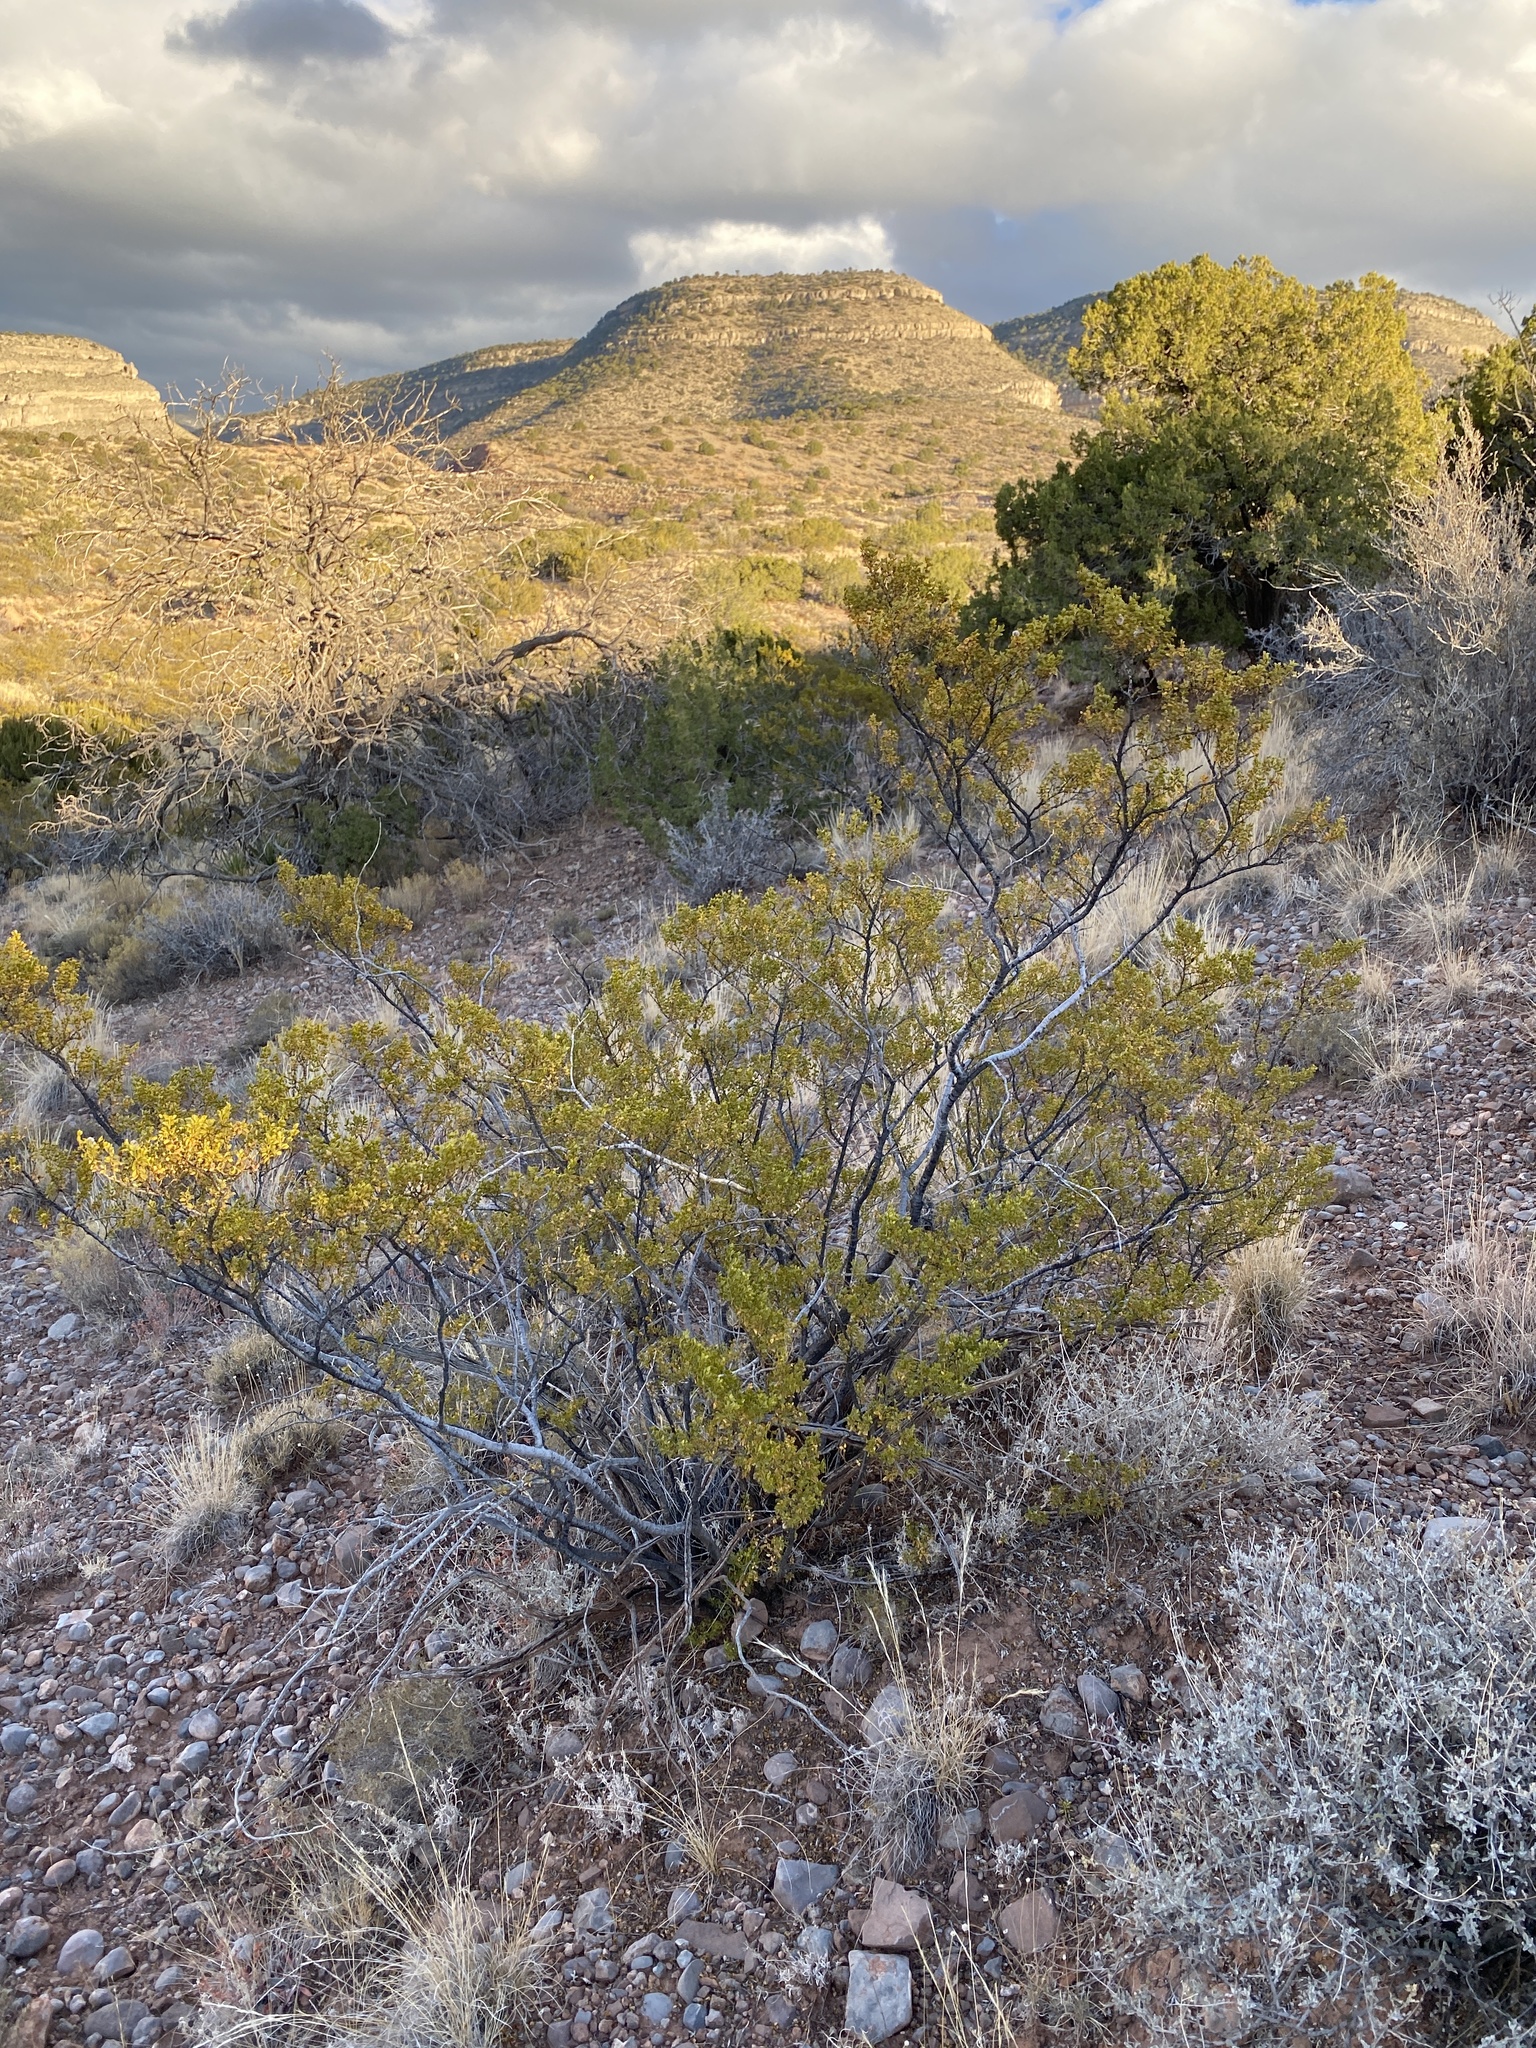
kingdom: Plantae
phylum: Tracheophyta
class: Magnoliopsida
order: Zygophyllales
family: Zygophyllaceae
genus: Larrea
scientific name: Larrea tridentata
